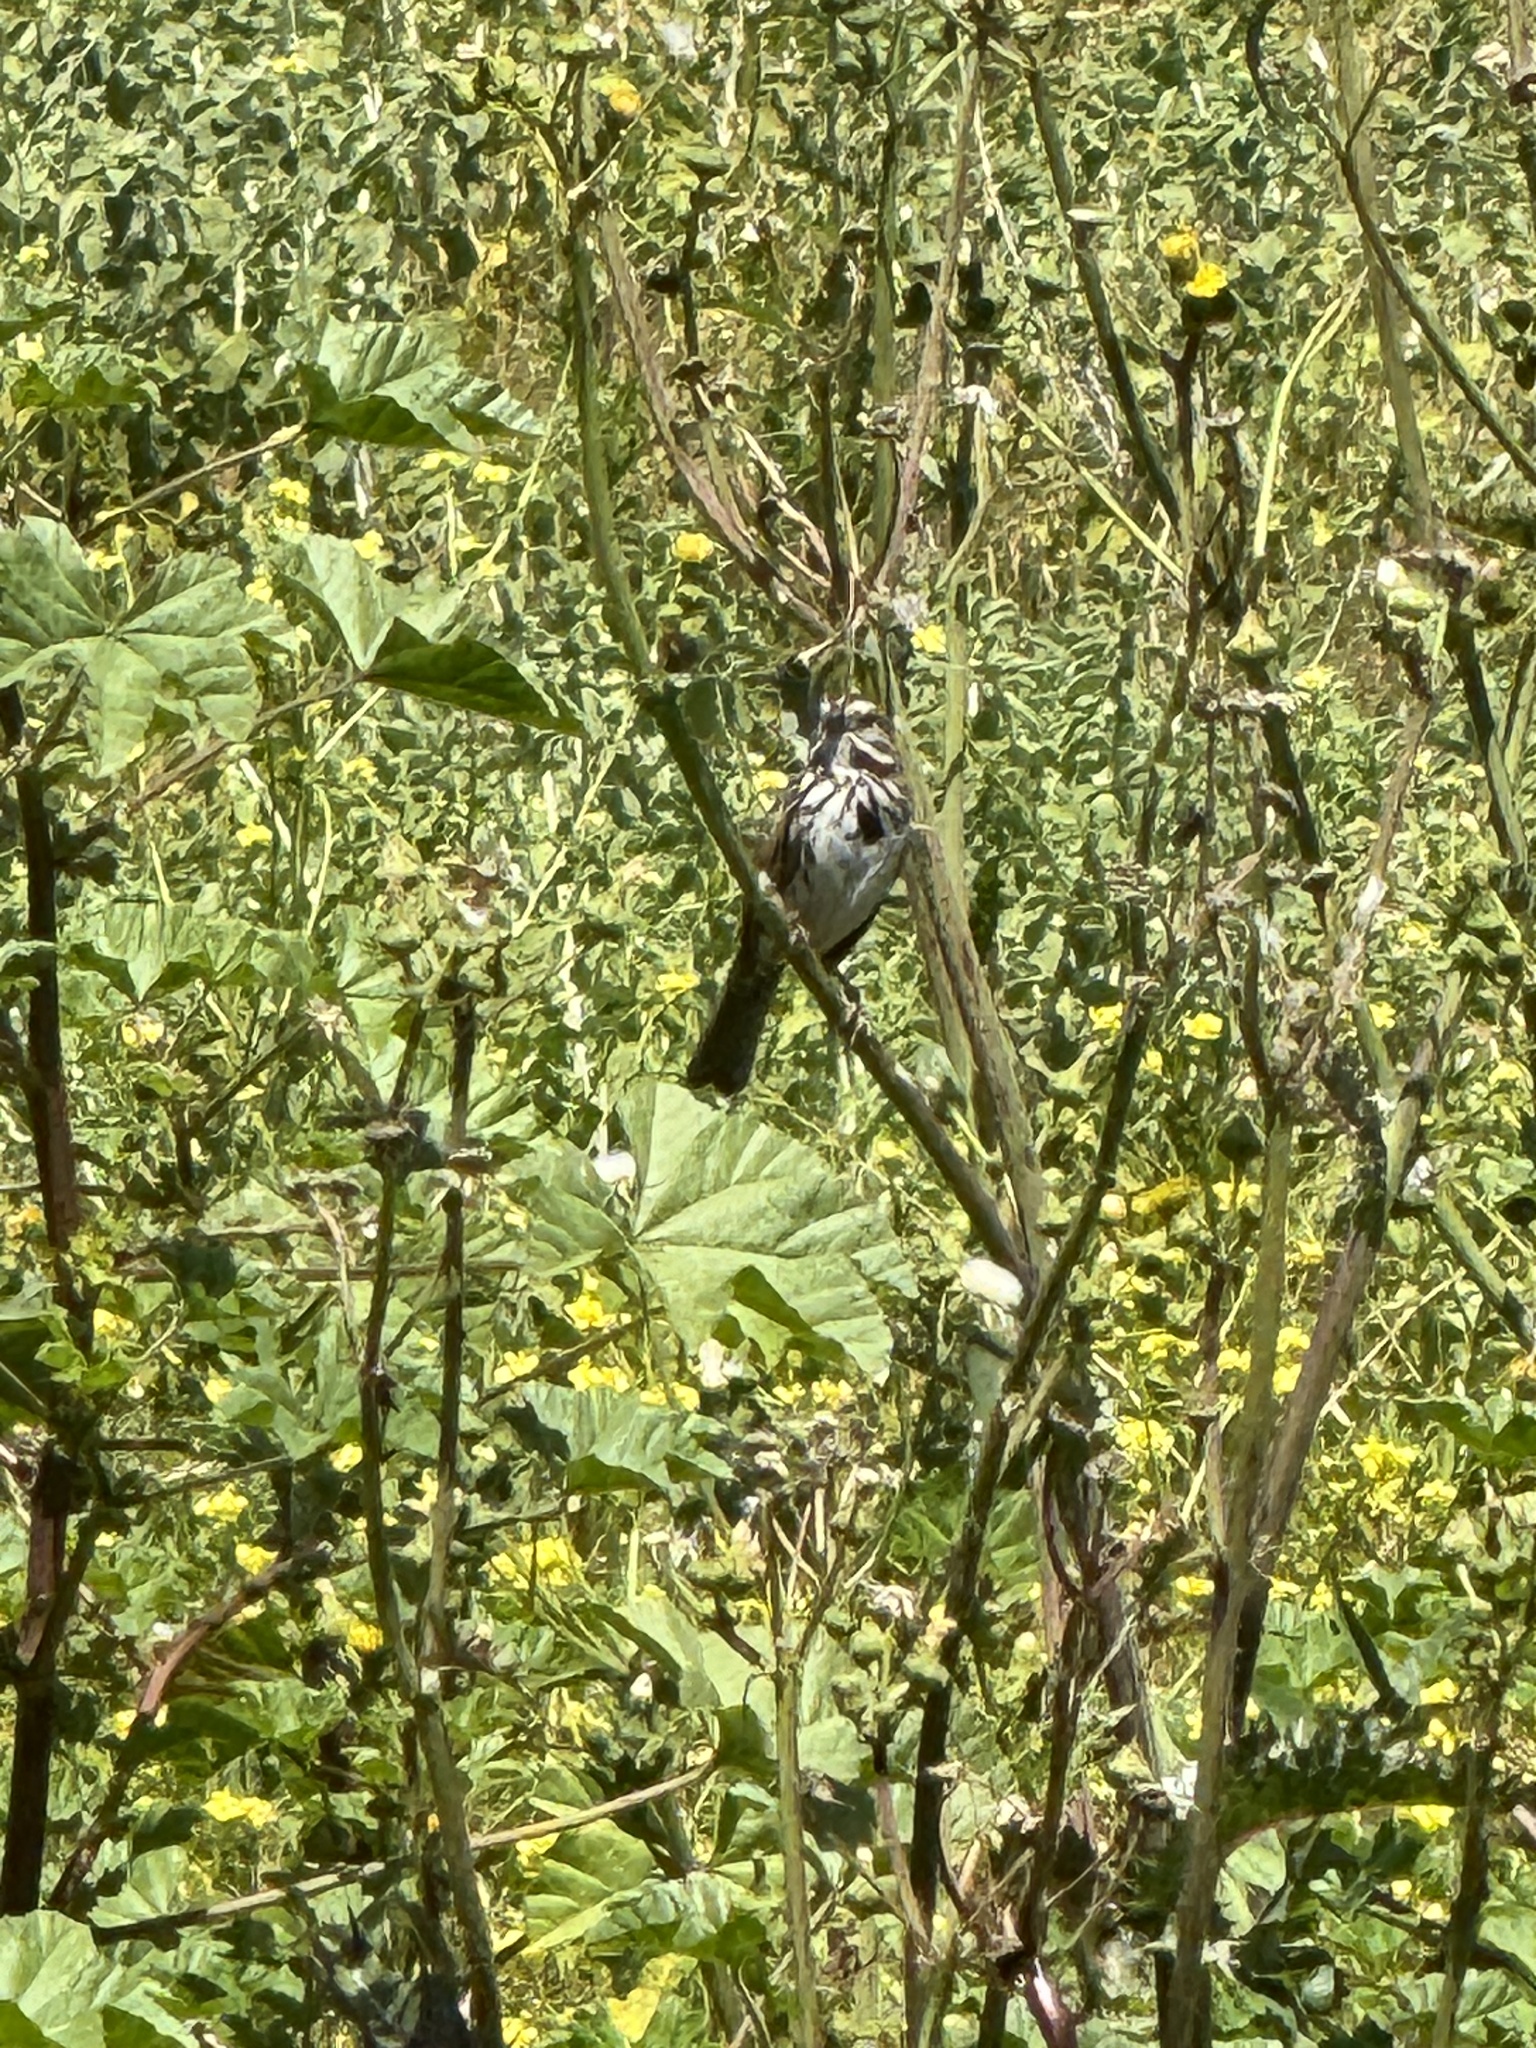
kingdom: Animalia
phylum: Chordata
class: Aves
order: Passeriformes
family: Passerellidae
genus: Melospiza
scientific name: Melospiza melodia
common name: Song sparrow
